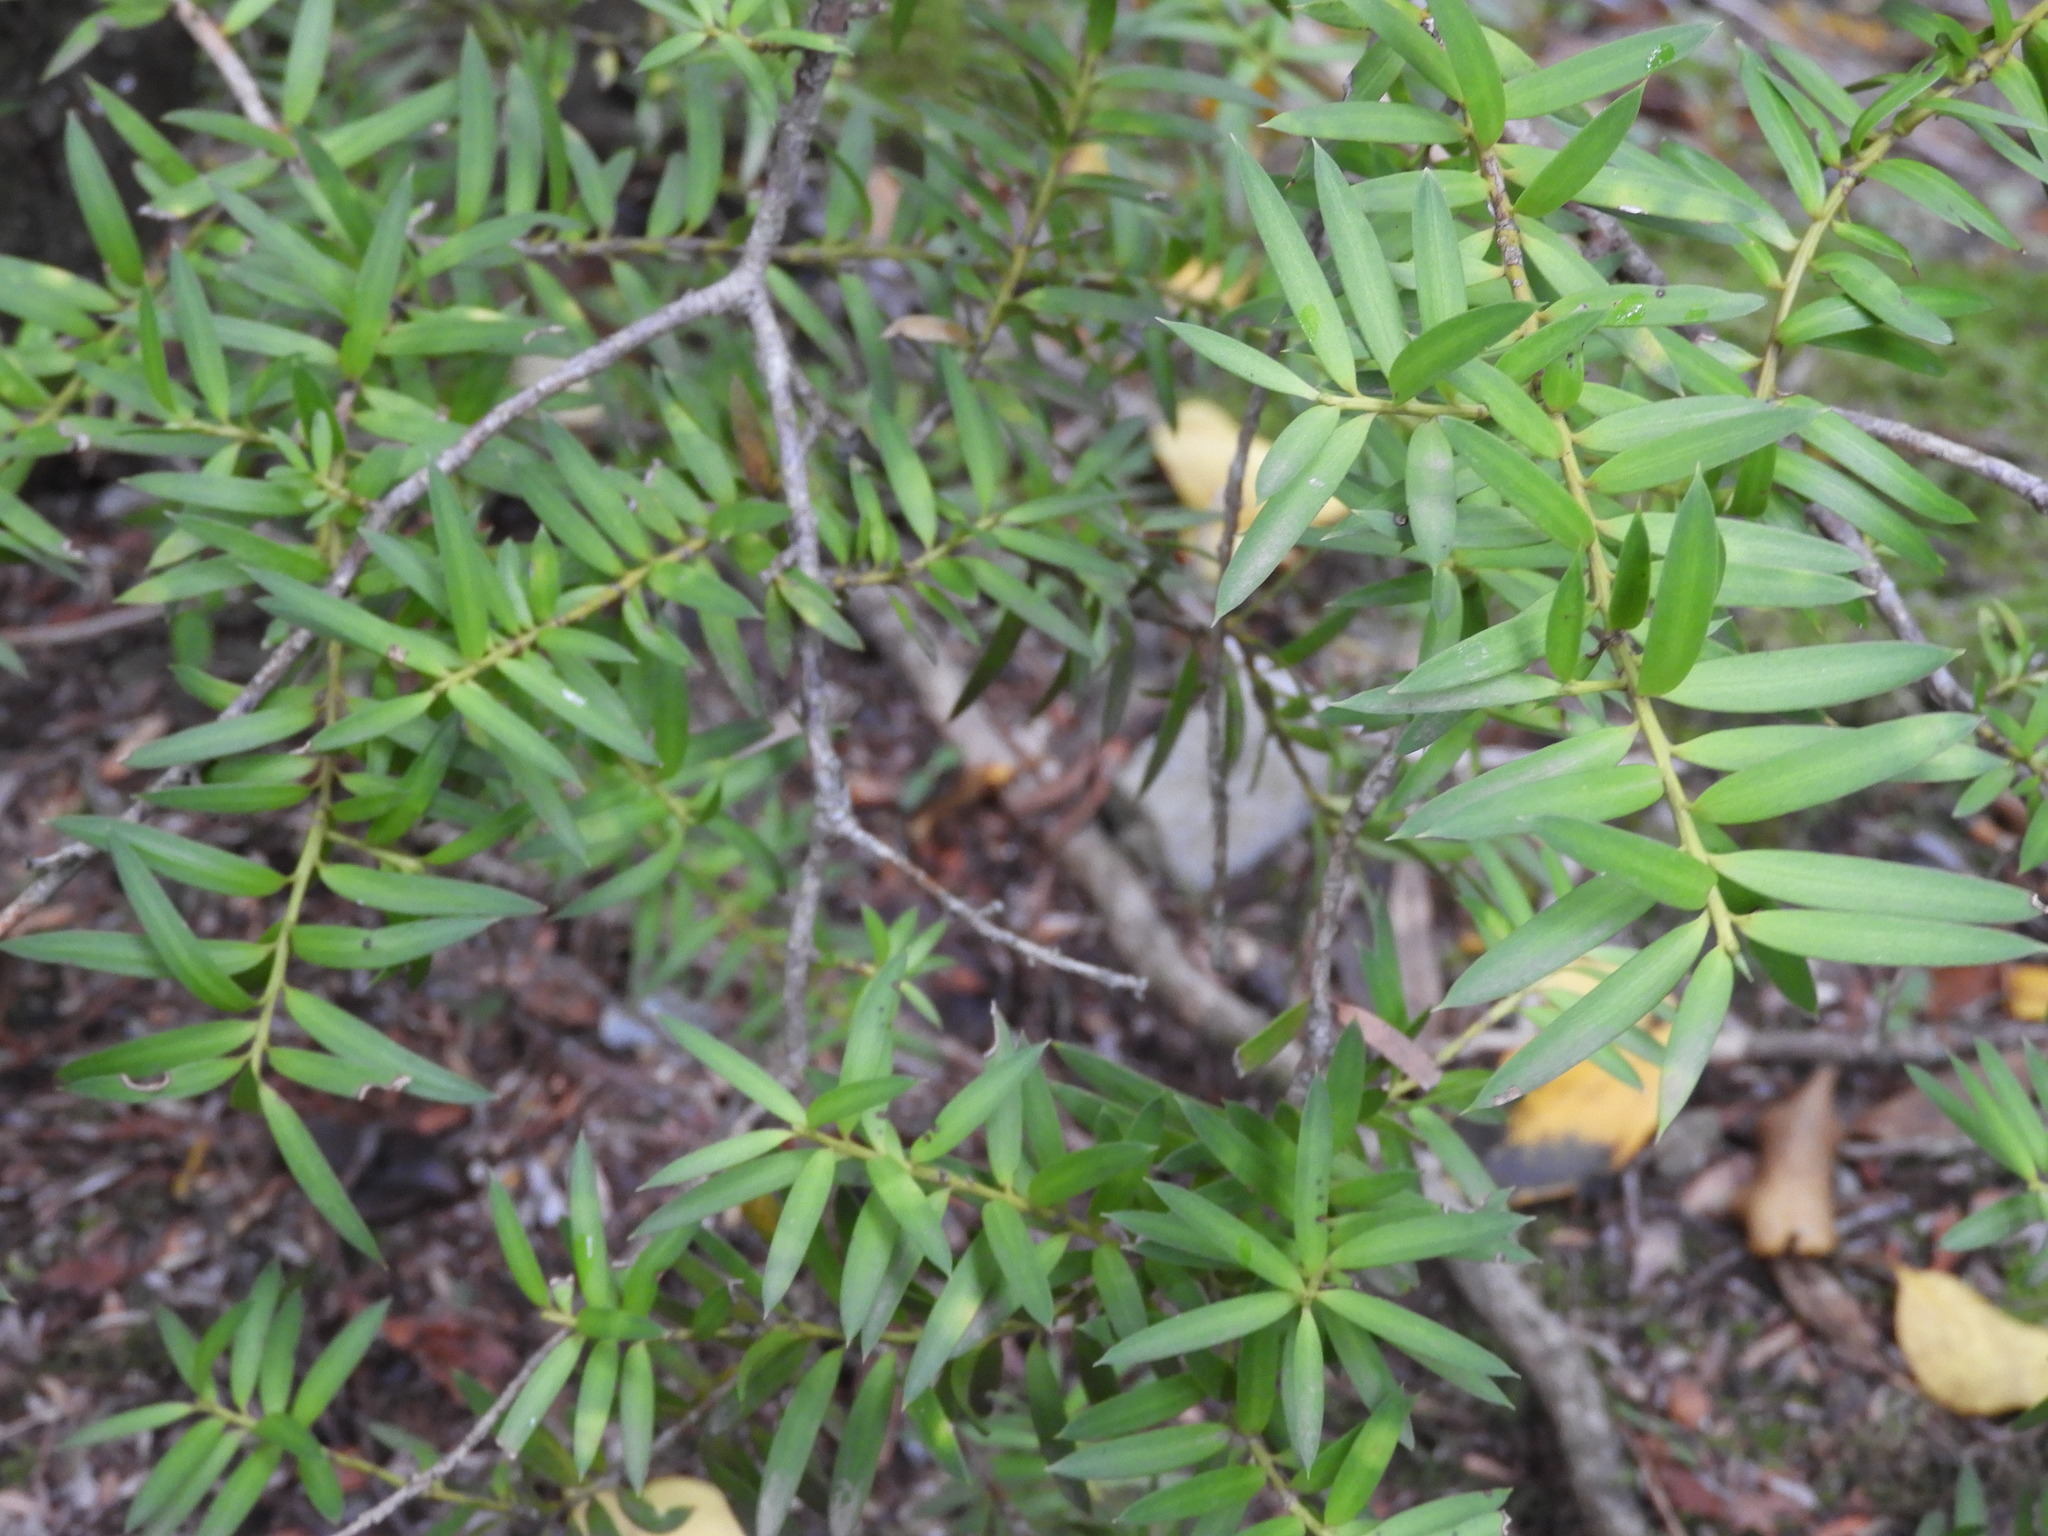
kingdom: Plantae
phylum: Tracheophyta
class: Pinopsida
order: Pinales
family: Podocarpaceae
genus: Podocarpus
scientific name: Podocarpus laetus
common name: Hall's totara
